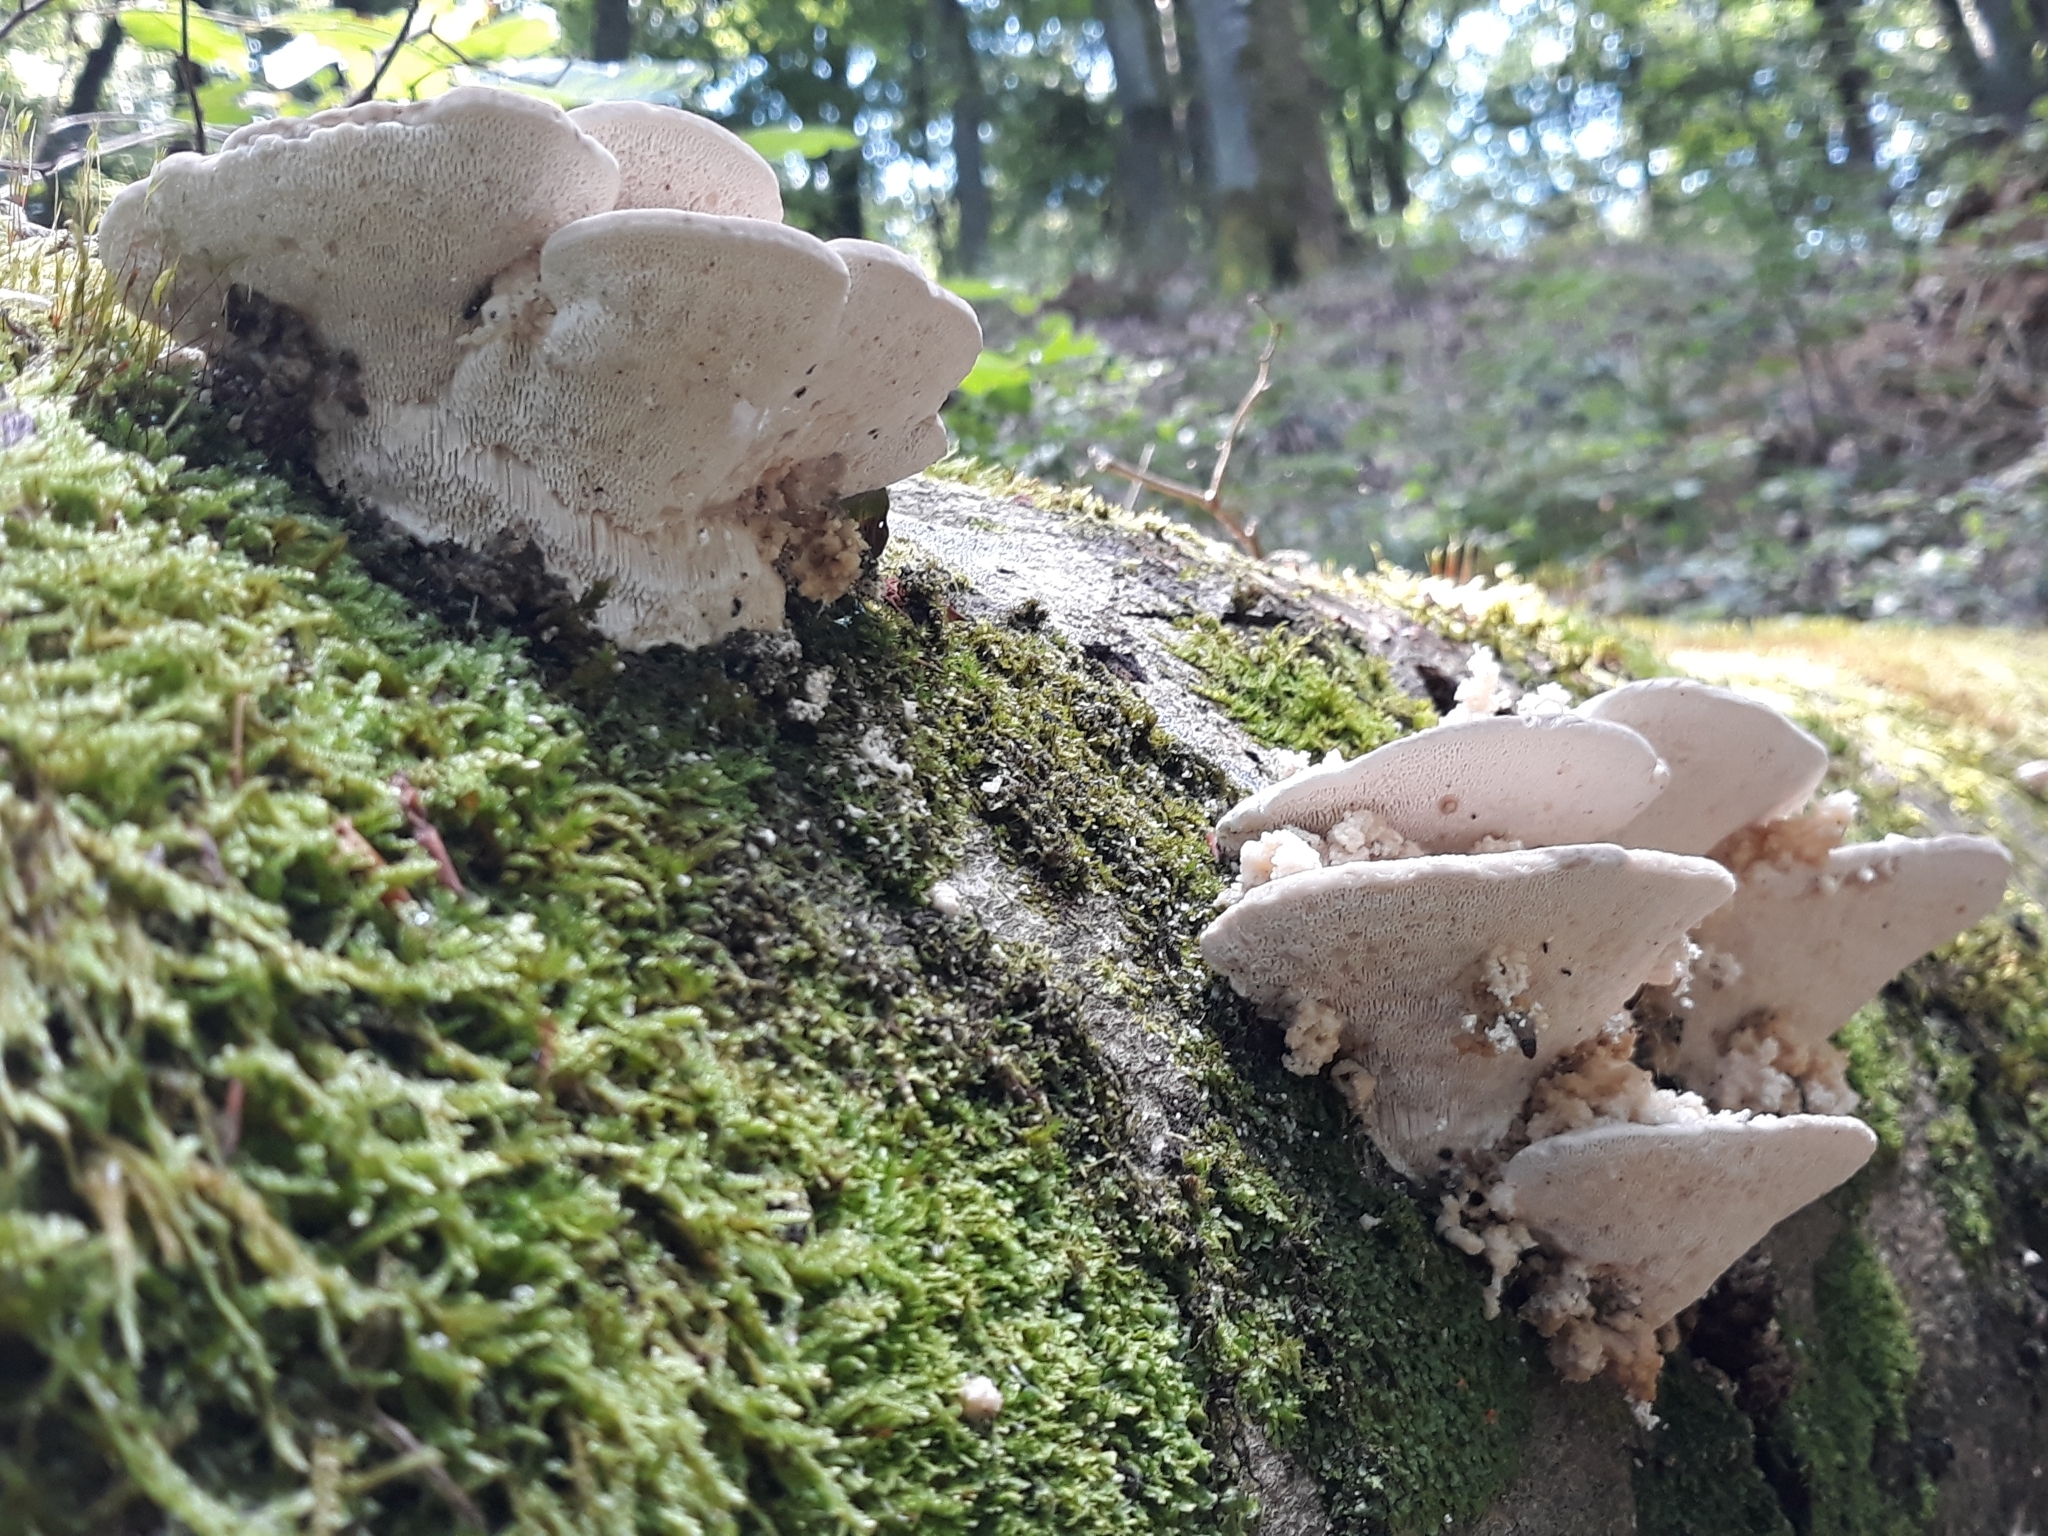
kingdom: Fungi
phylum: Basidiomycota
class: Agaricomycetes
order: Polyporales
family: Polyporaceae
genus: Trametes
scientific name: Trametes gibbosa
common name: Lumpy bracket
